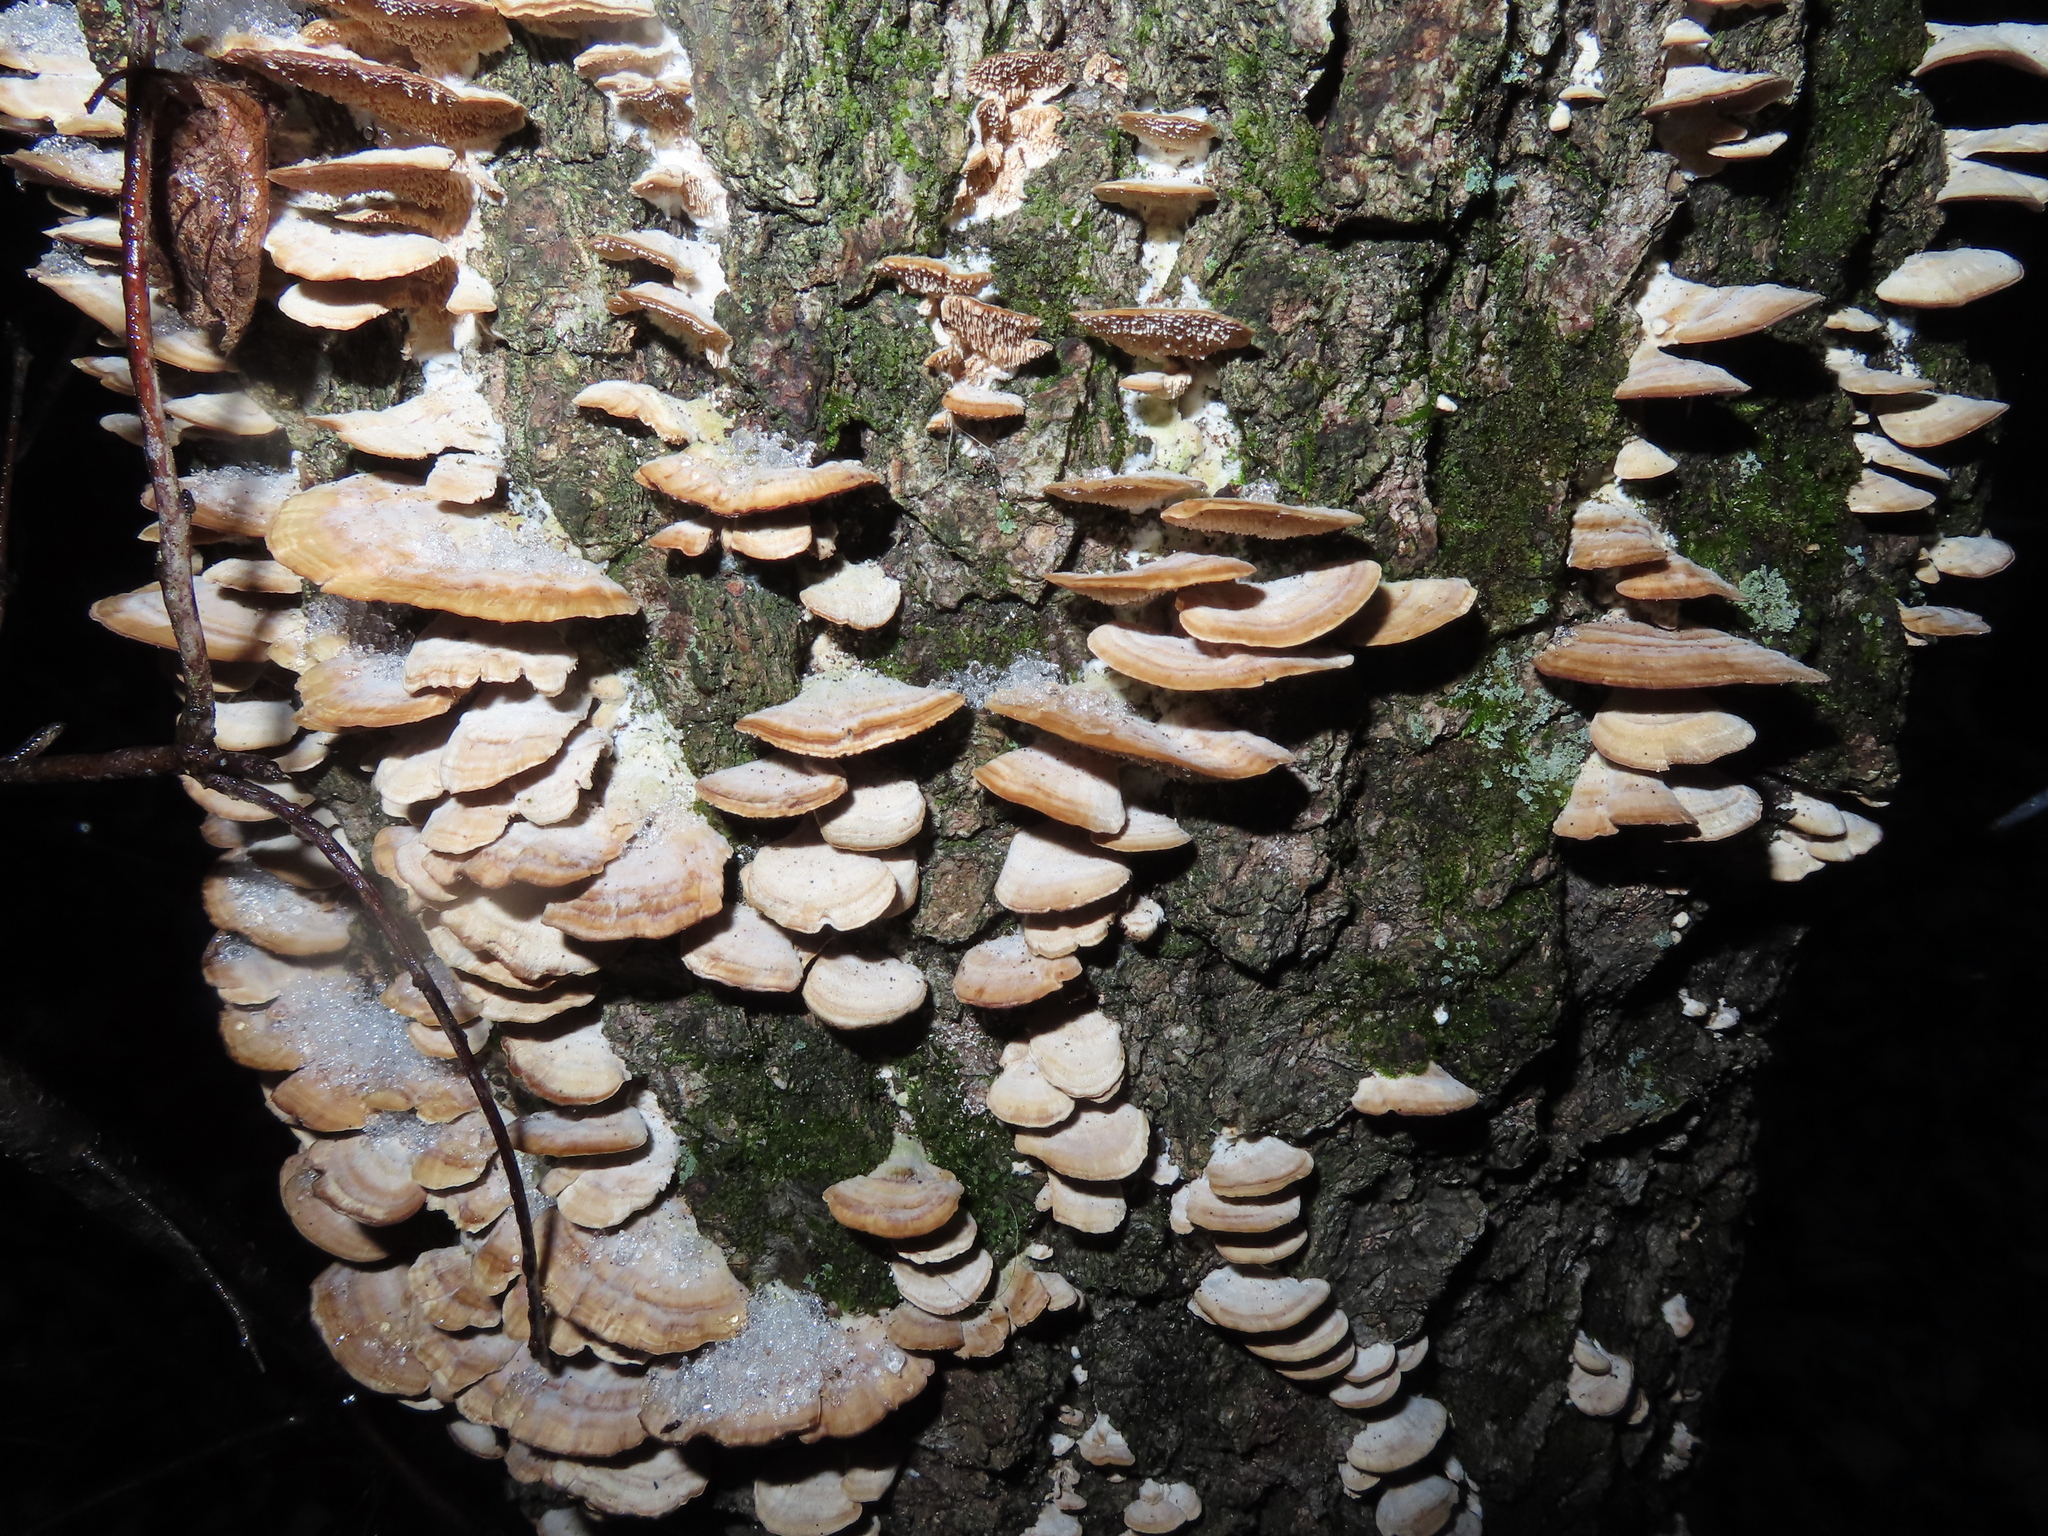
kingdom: Fungi
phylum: Basidiomycota
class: Agaricomycetes
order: Hymenochaetales
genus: Trichaptum
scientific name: Trichaptum biforme
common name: Violet-toothed polypore
